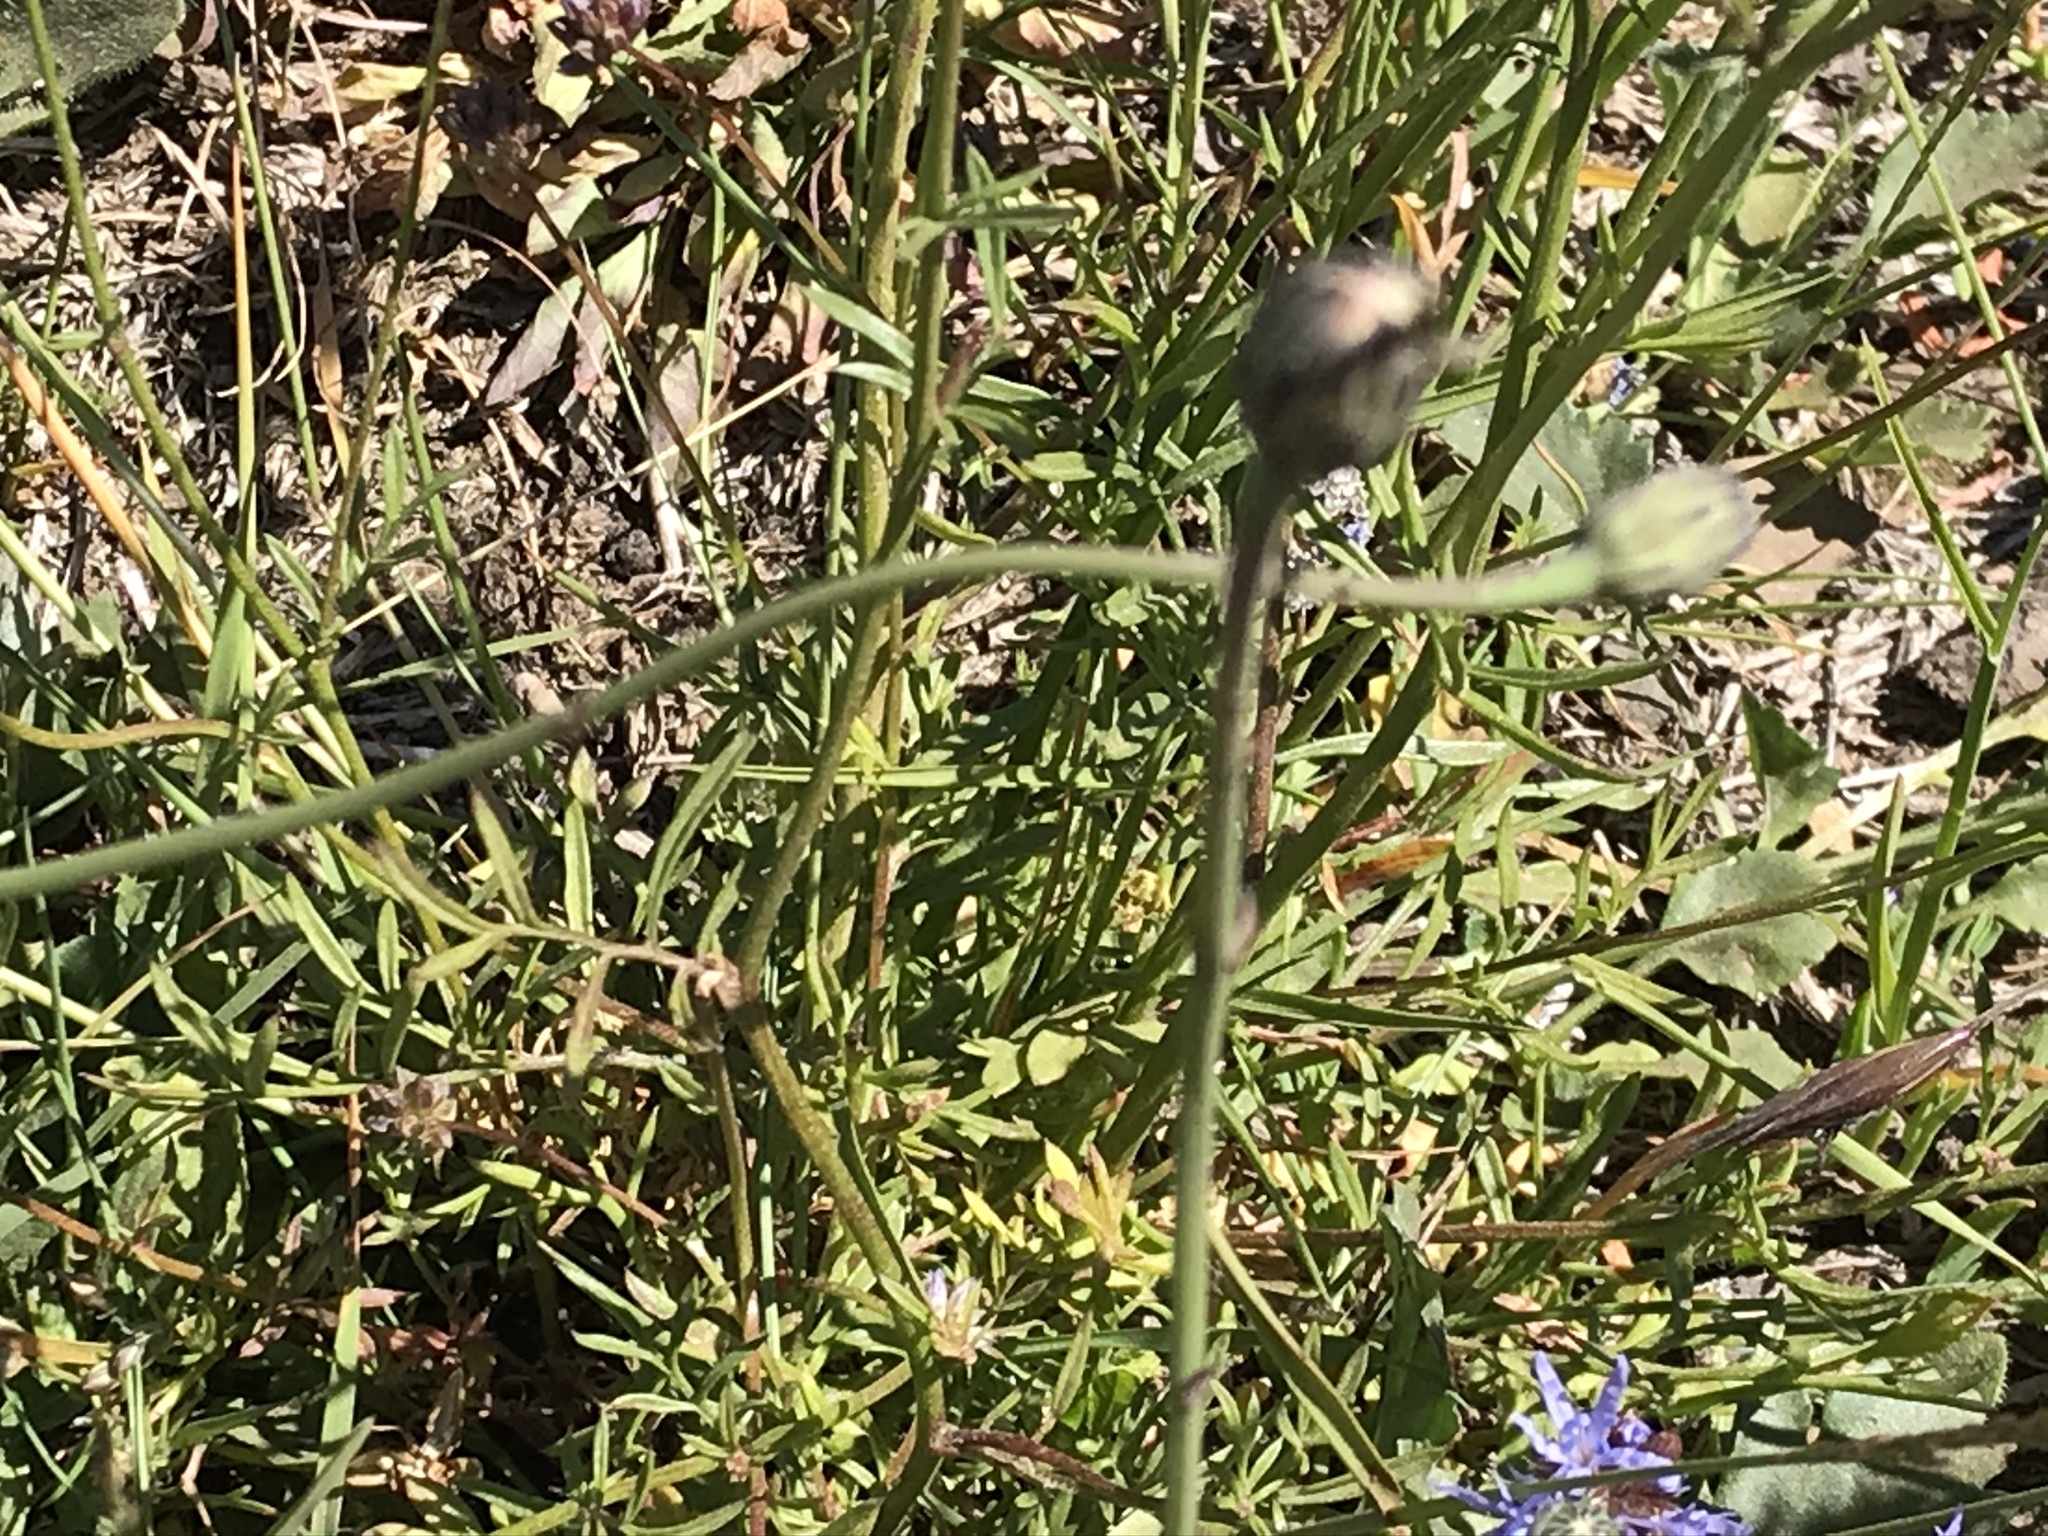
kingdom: Plantae
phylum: Tracheophyta
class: Magnoliopsida
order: Ericales
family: Polemoniaceae
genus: Gilia
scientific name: Gilia capitata
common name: Bluehead gilia
